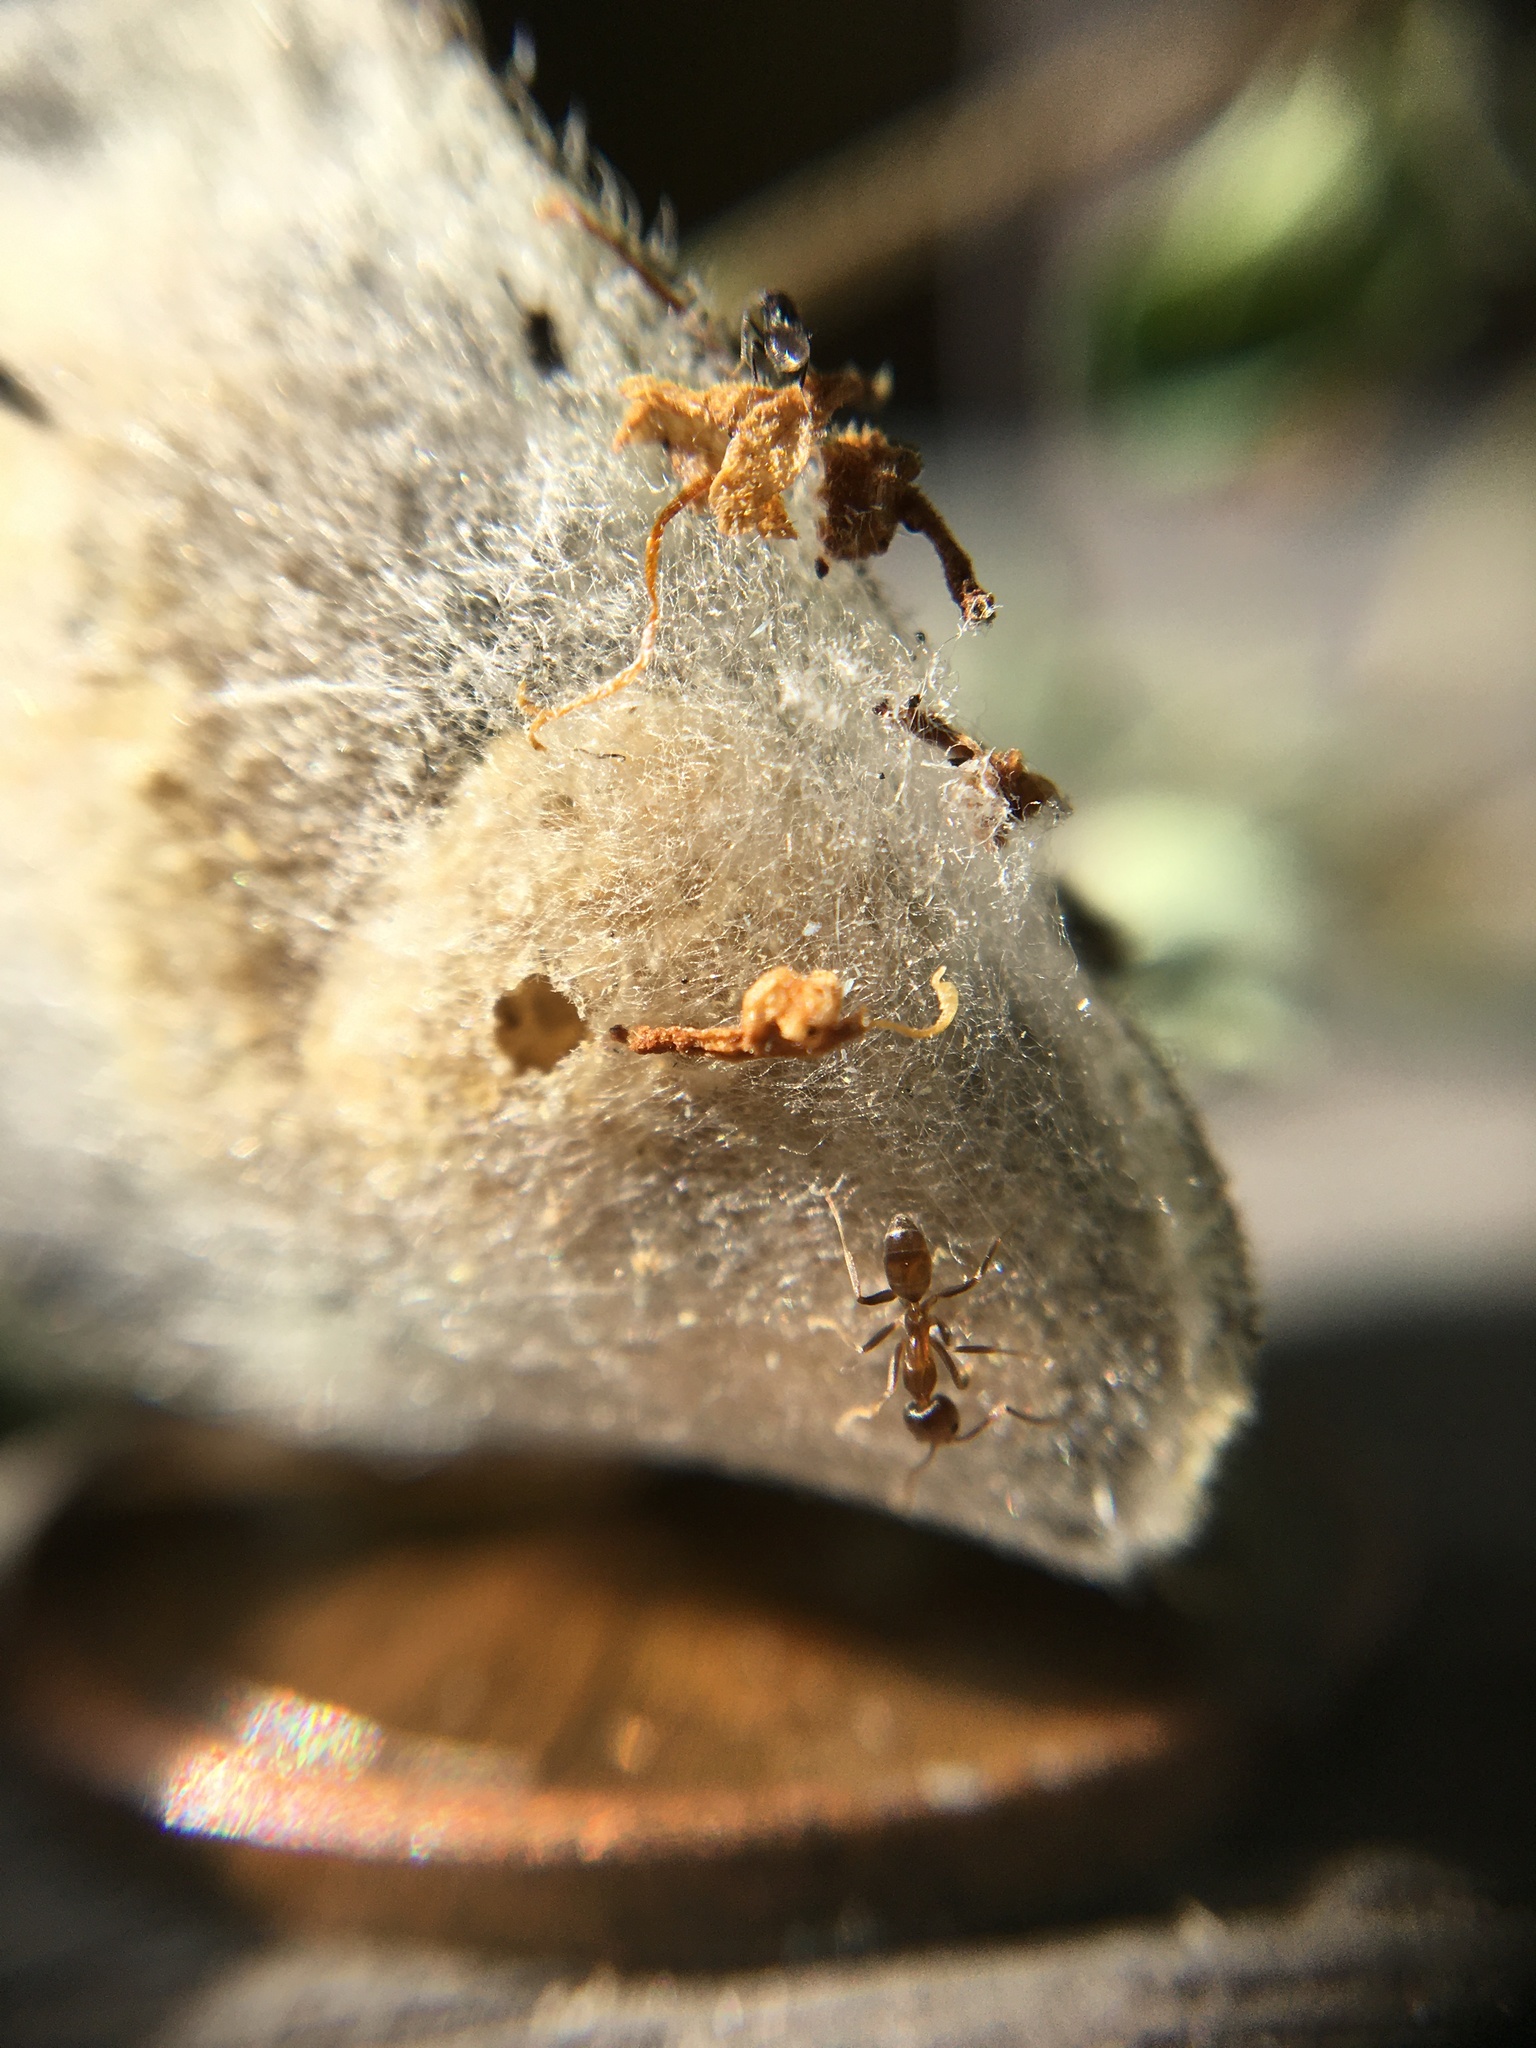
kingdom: Animalia
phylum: Arthropoda
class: Insecta
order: Hymenoptera
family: Formicidae
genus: Linepithema
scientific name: Linepithema humile
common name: Argentine ant
